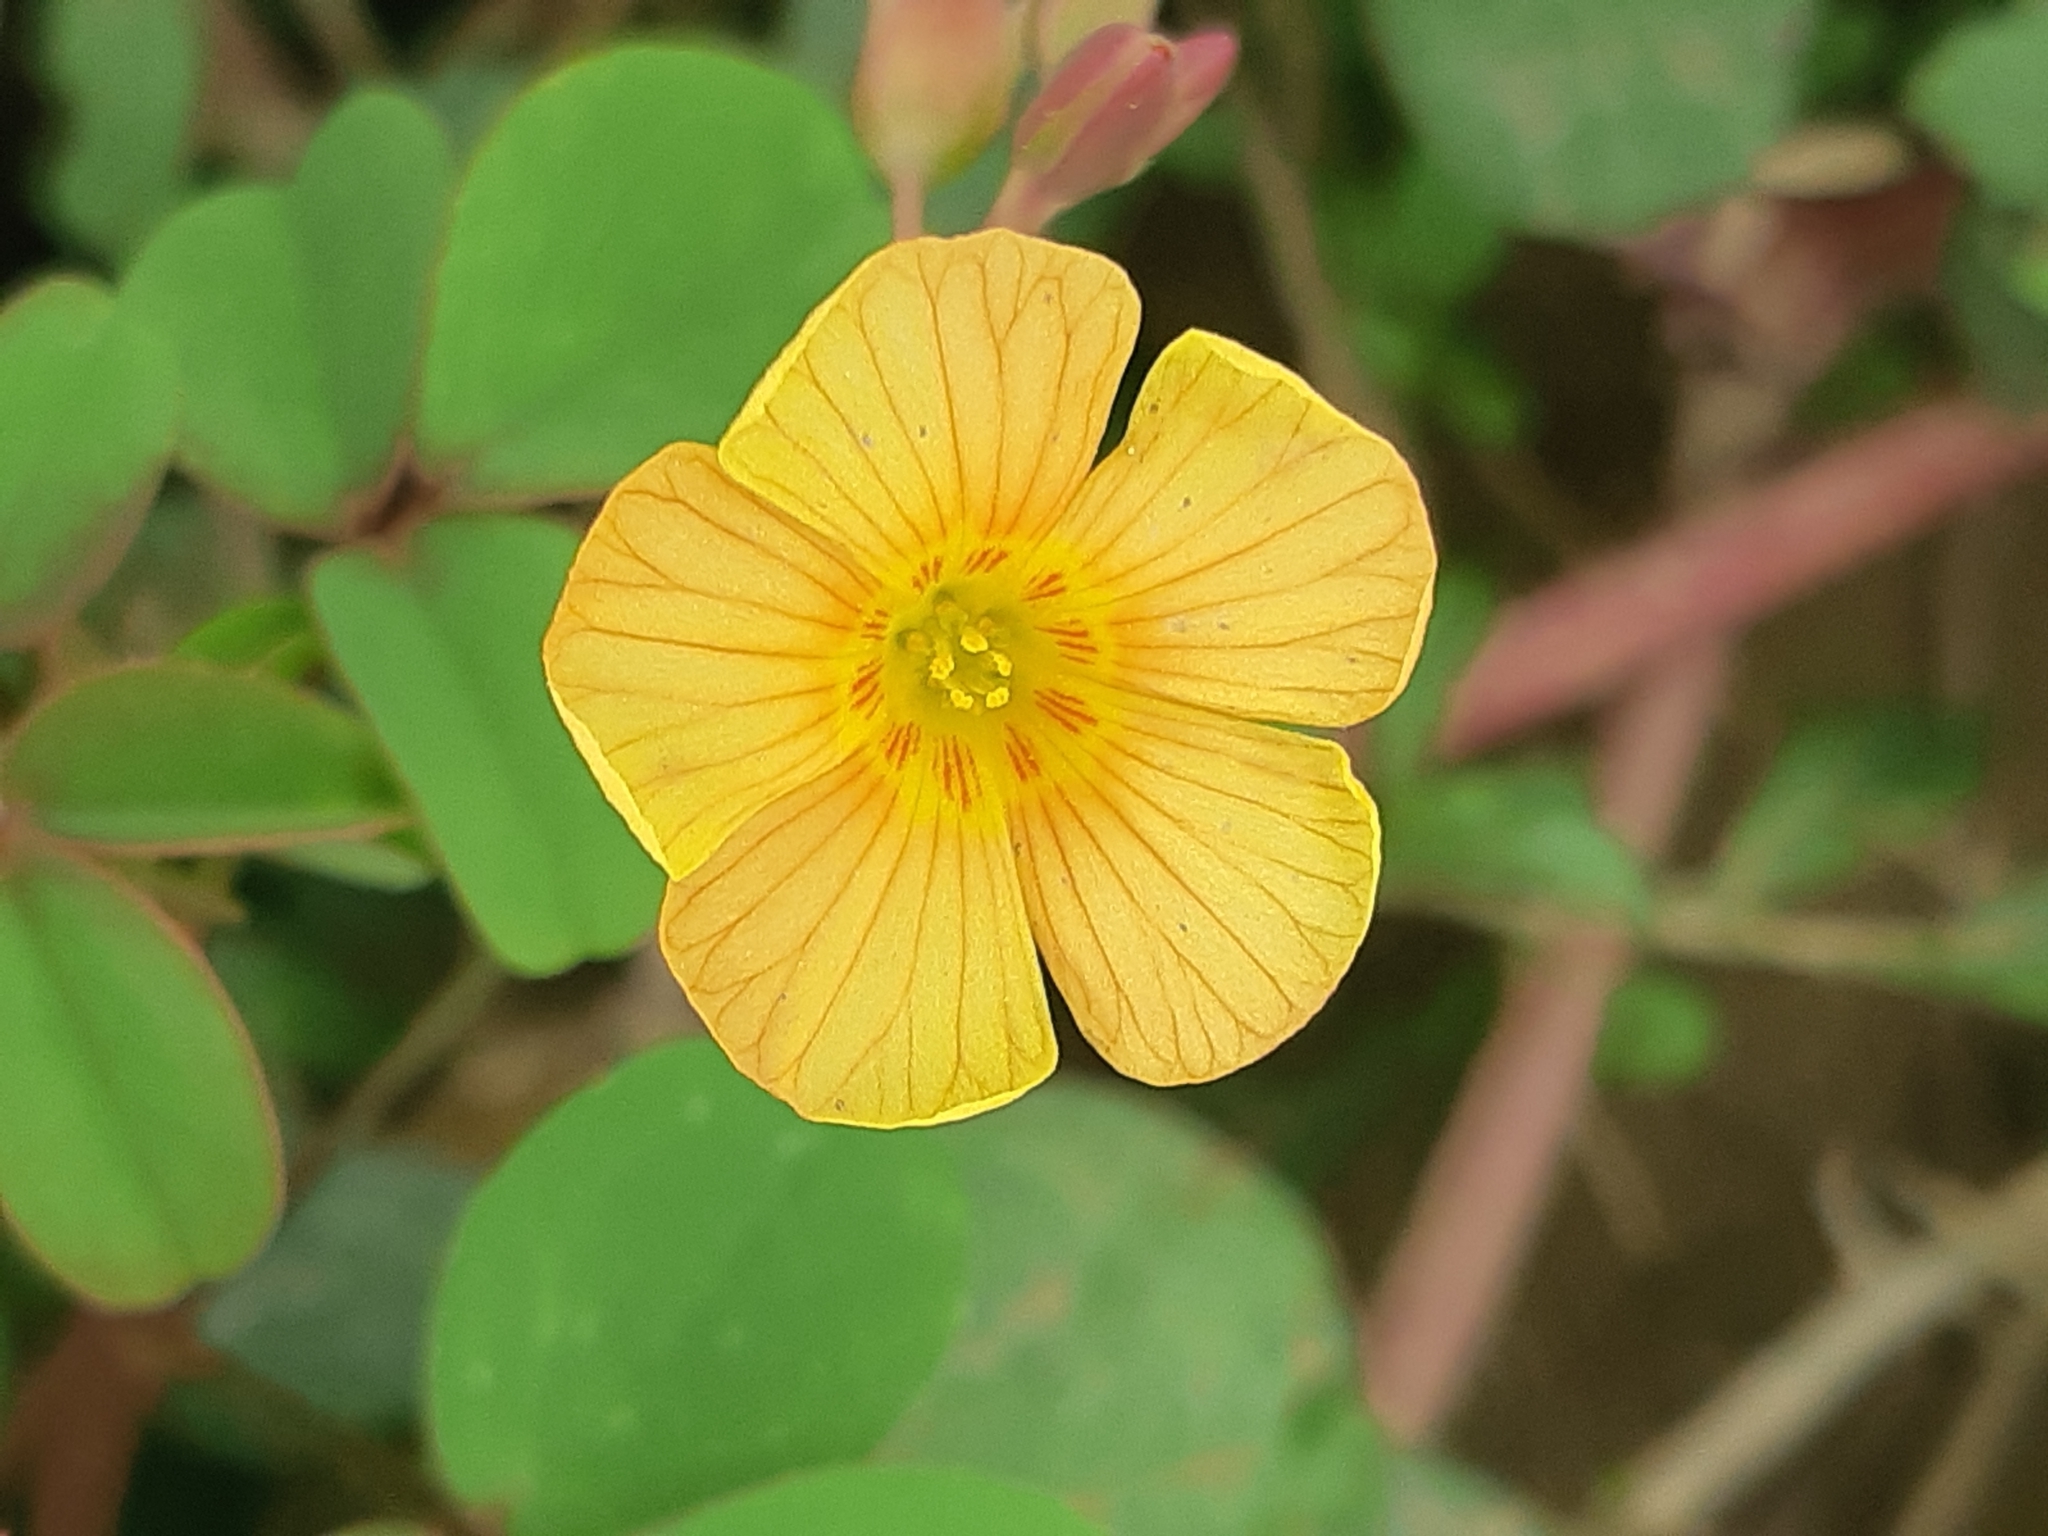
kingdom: Plantae
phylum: Tracheophyta
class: Magnoliopsida
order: Oxalidales
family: Oxalidaceae
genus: Oxalis
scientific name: Oxalis dombeyi
